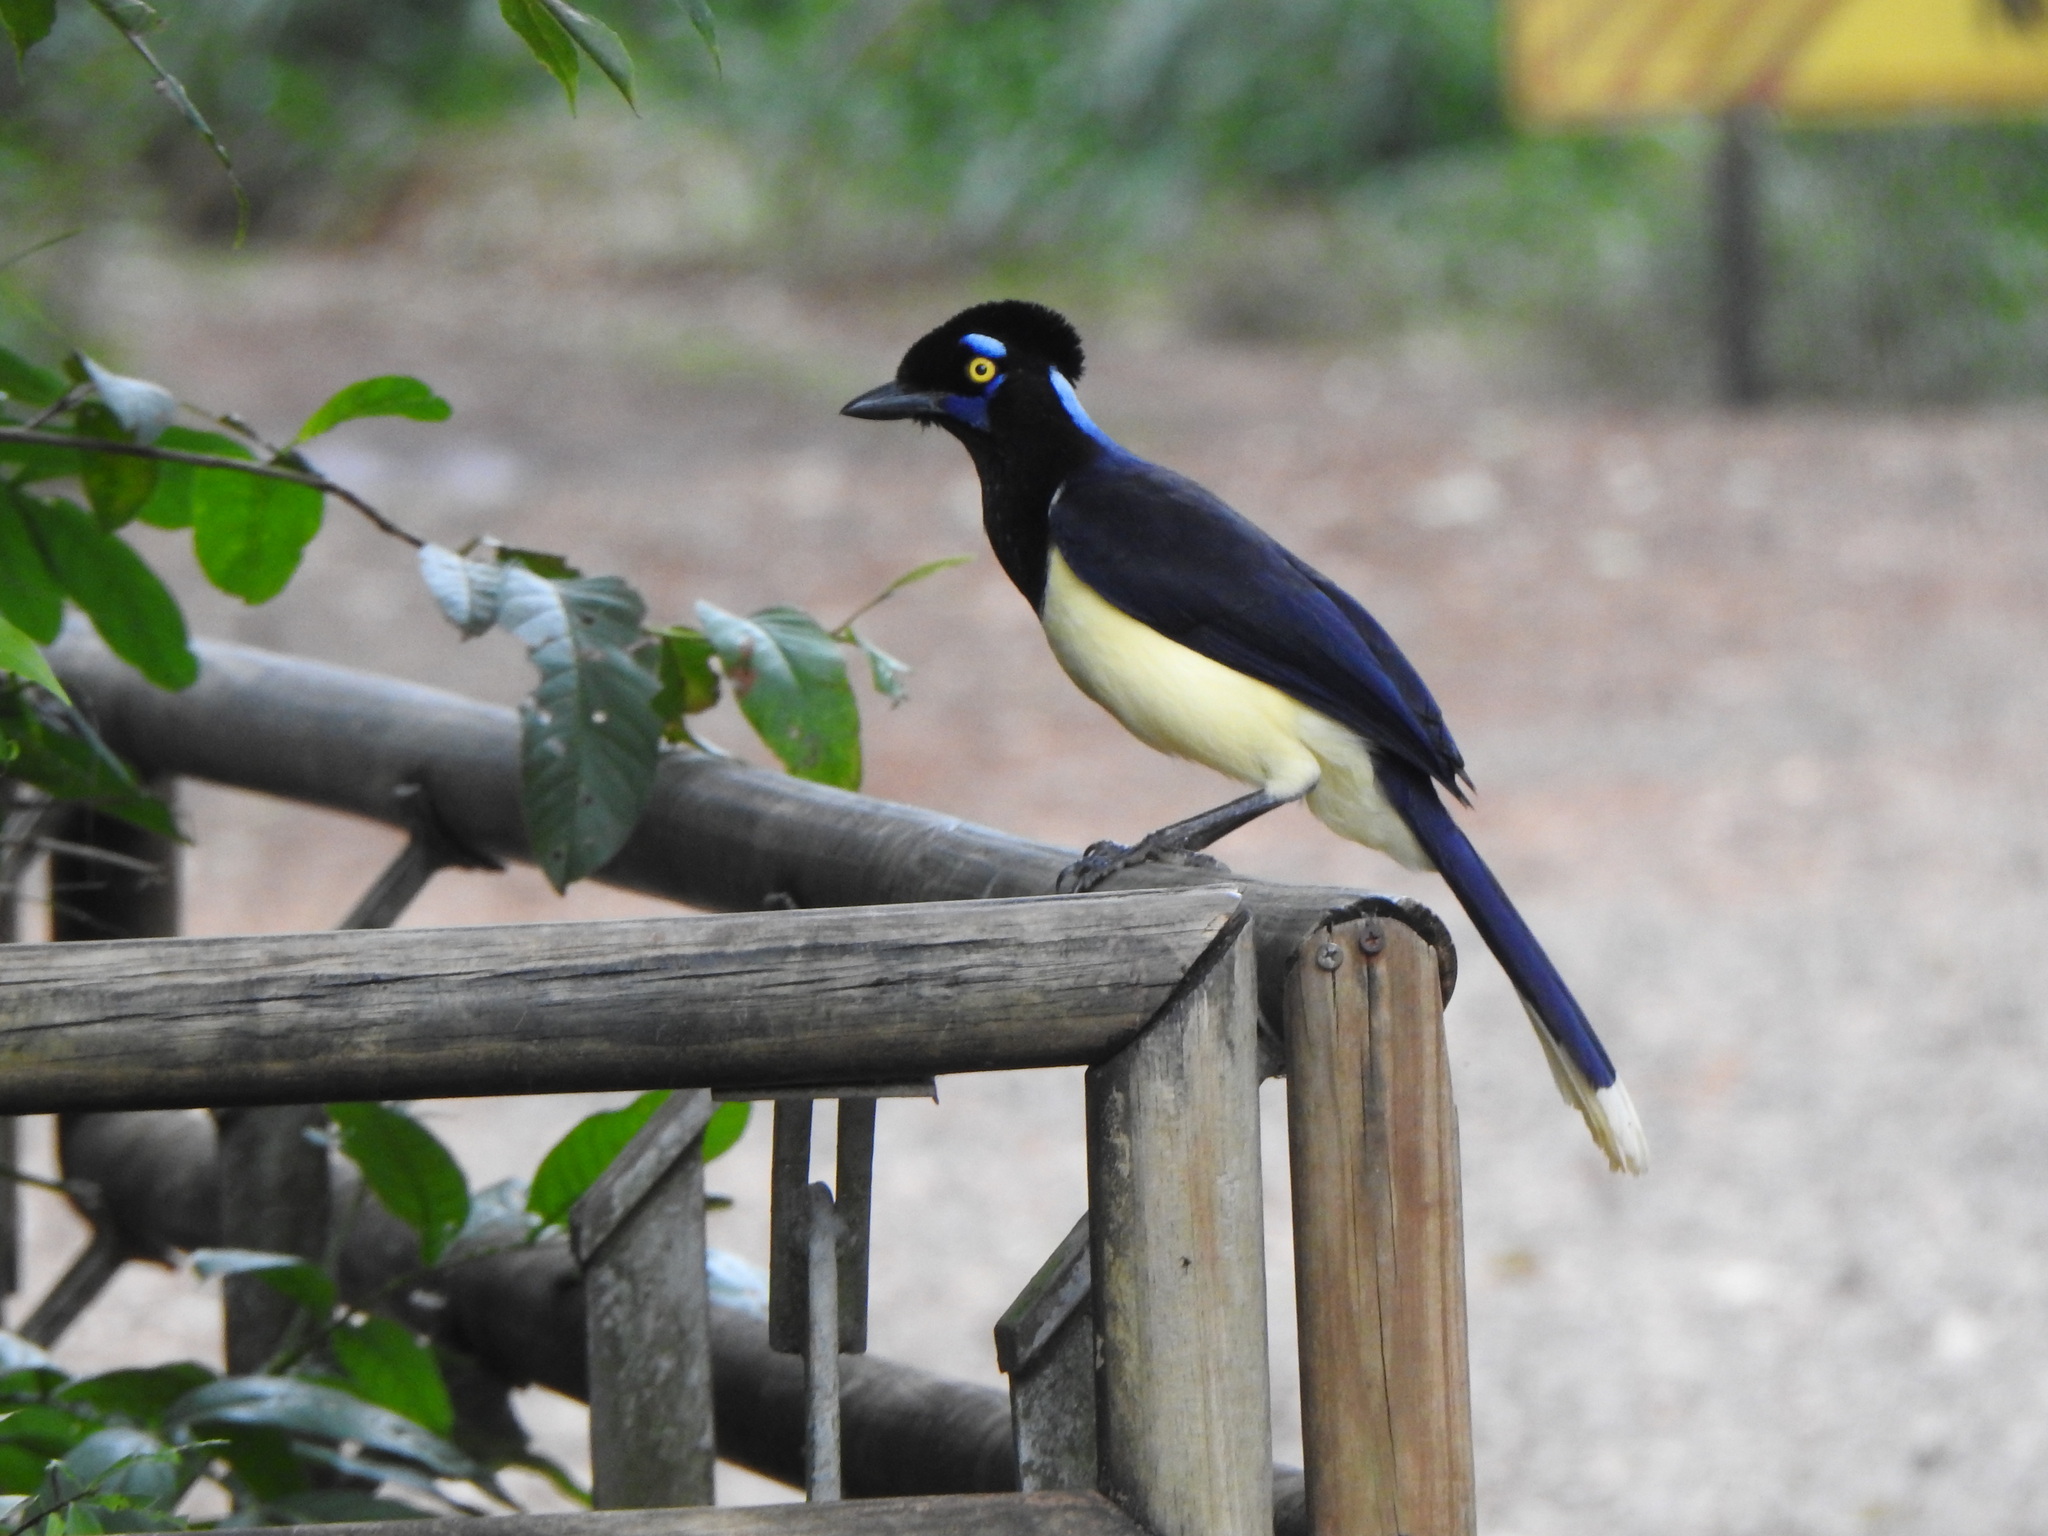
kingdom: Animalia
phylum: Chordata
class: Aves
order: Passeriformes
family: Corvidae
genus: Cyanocorax
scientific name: Cyanocorax chrysops
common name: Plush-crested jay
